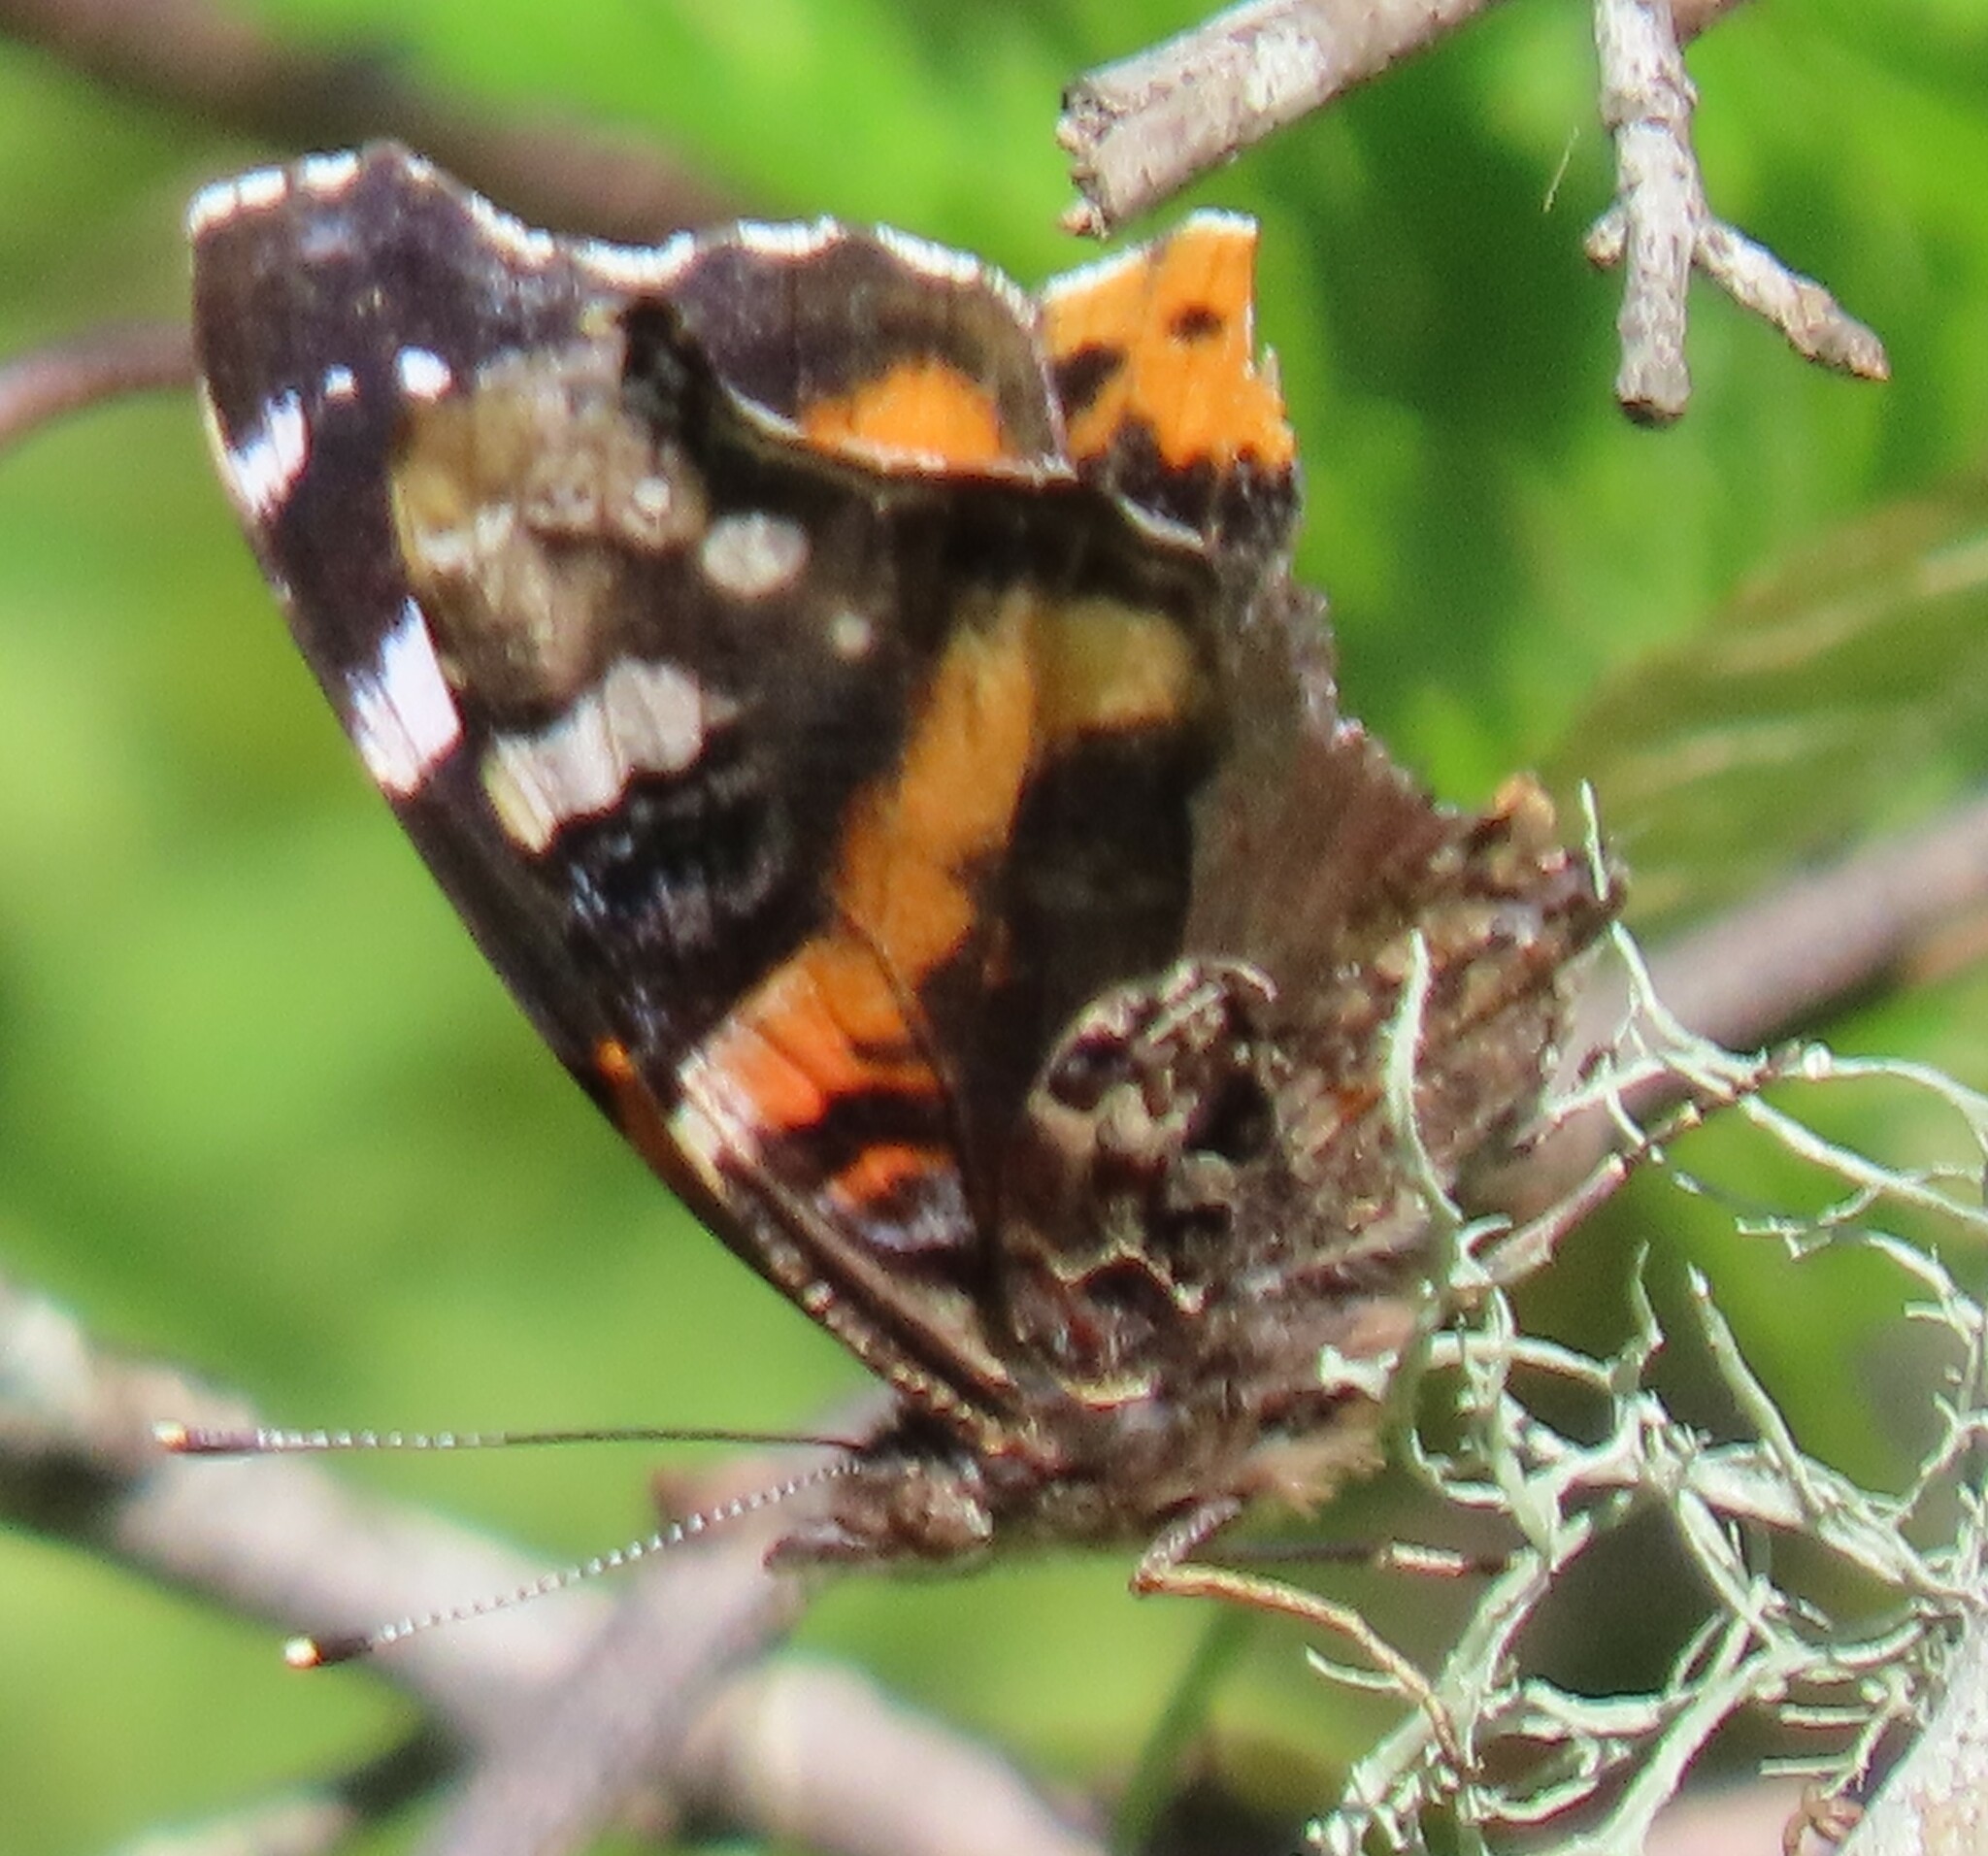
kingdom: Animalia
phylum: Arthropoda
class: Insecta
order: Lepidoptera
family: Nymphalidae
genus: Vanessa
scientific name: Vanessa atalanta
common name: Red admiral
